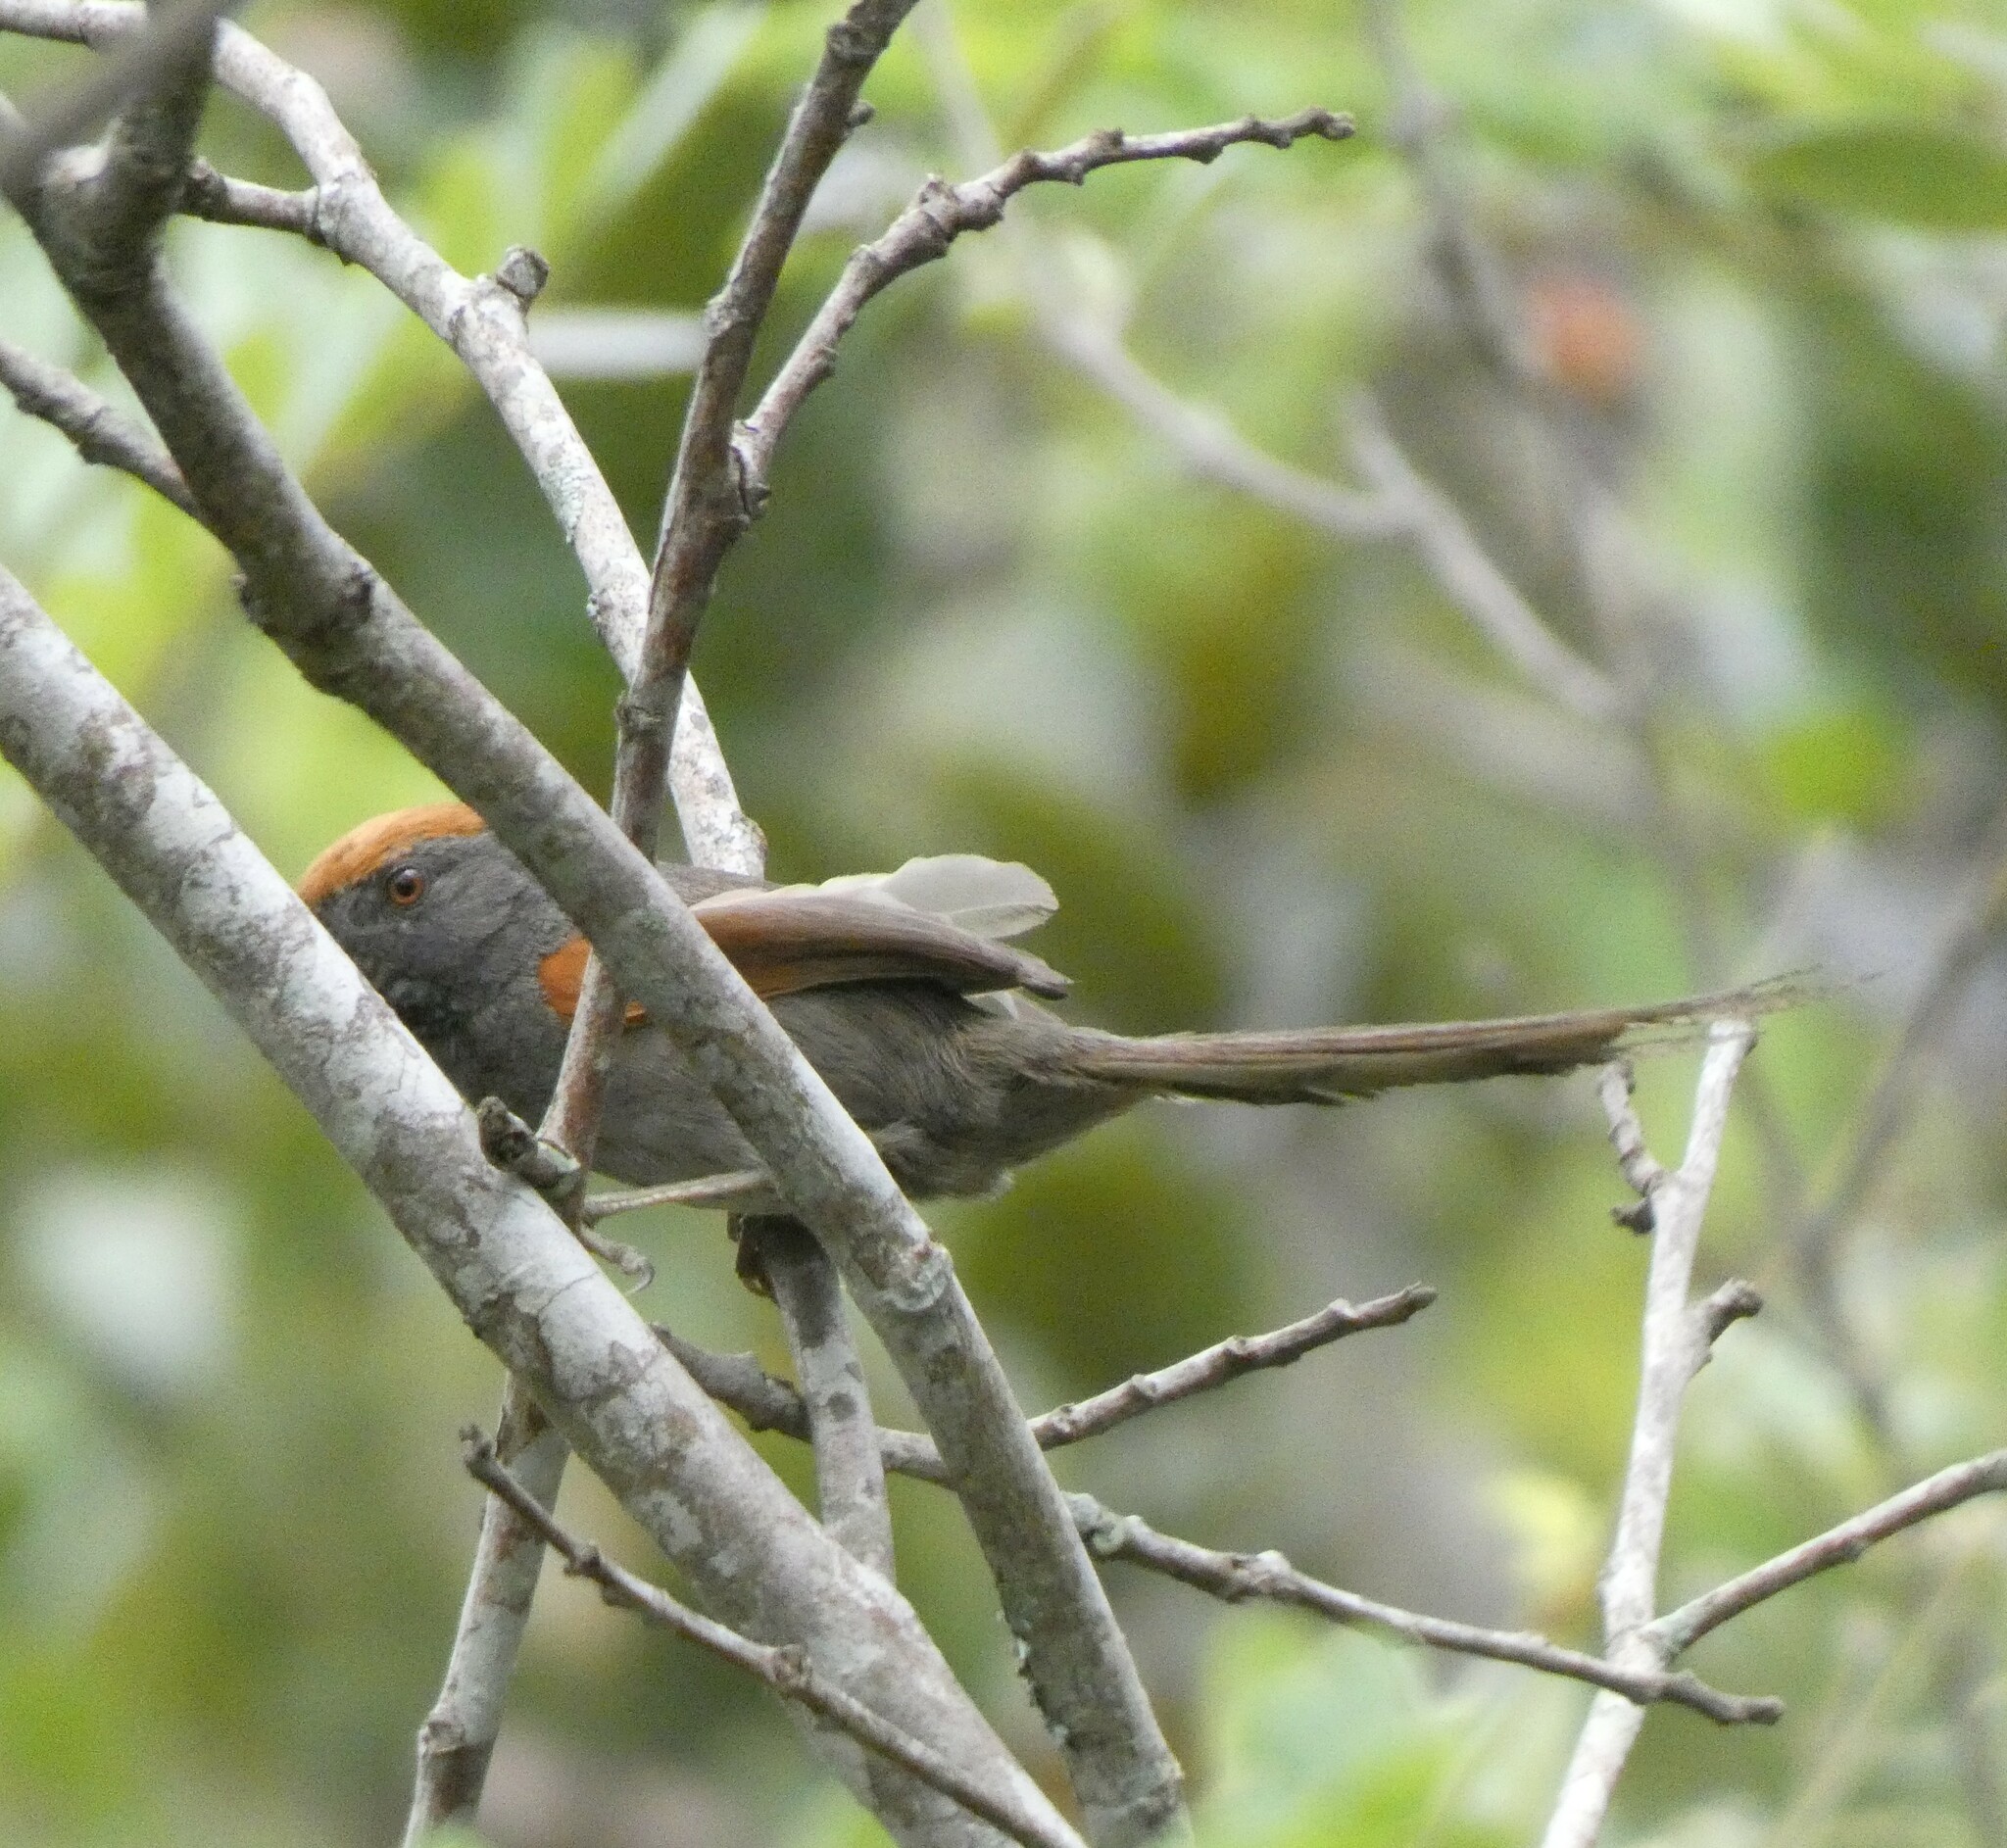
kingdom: Animalia
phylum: Chordata
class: Aves
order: Passeriformes
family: Furnariidae
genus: Synallaxis
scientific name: Synallaxis spixi
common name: Spix's spinetail
